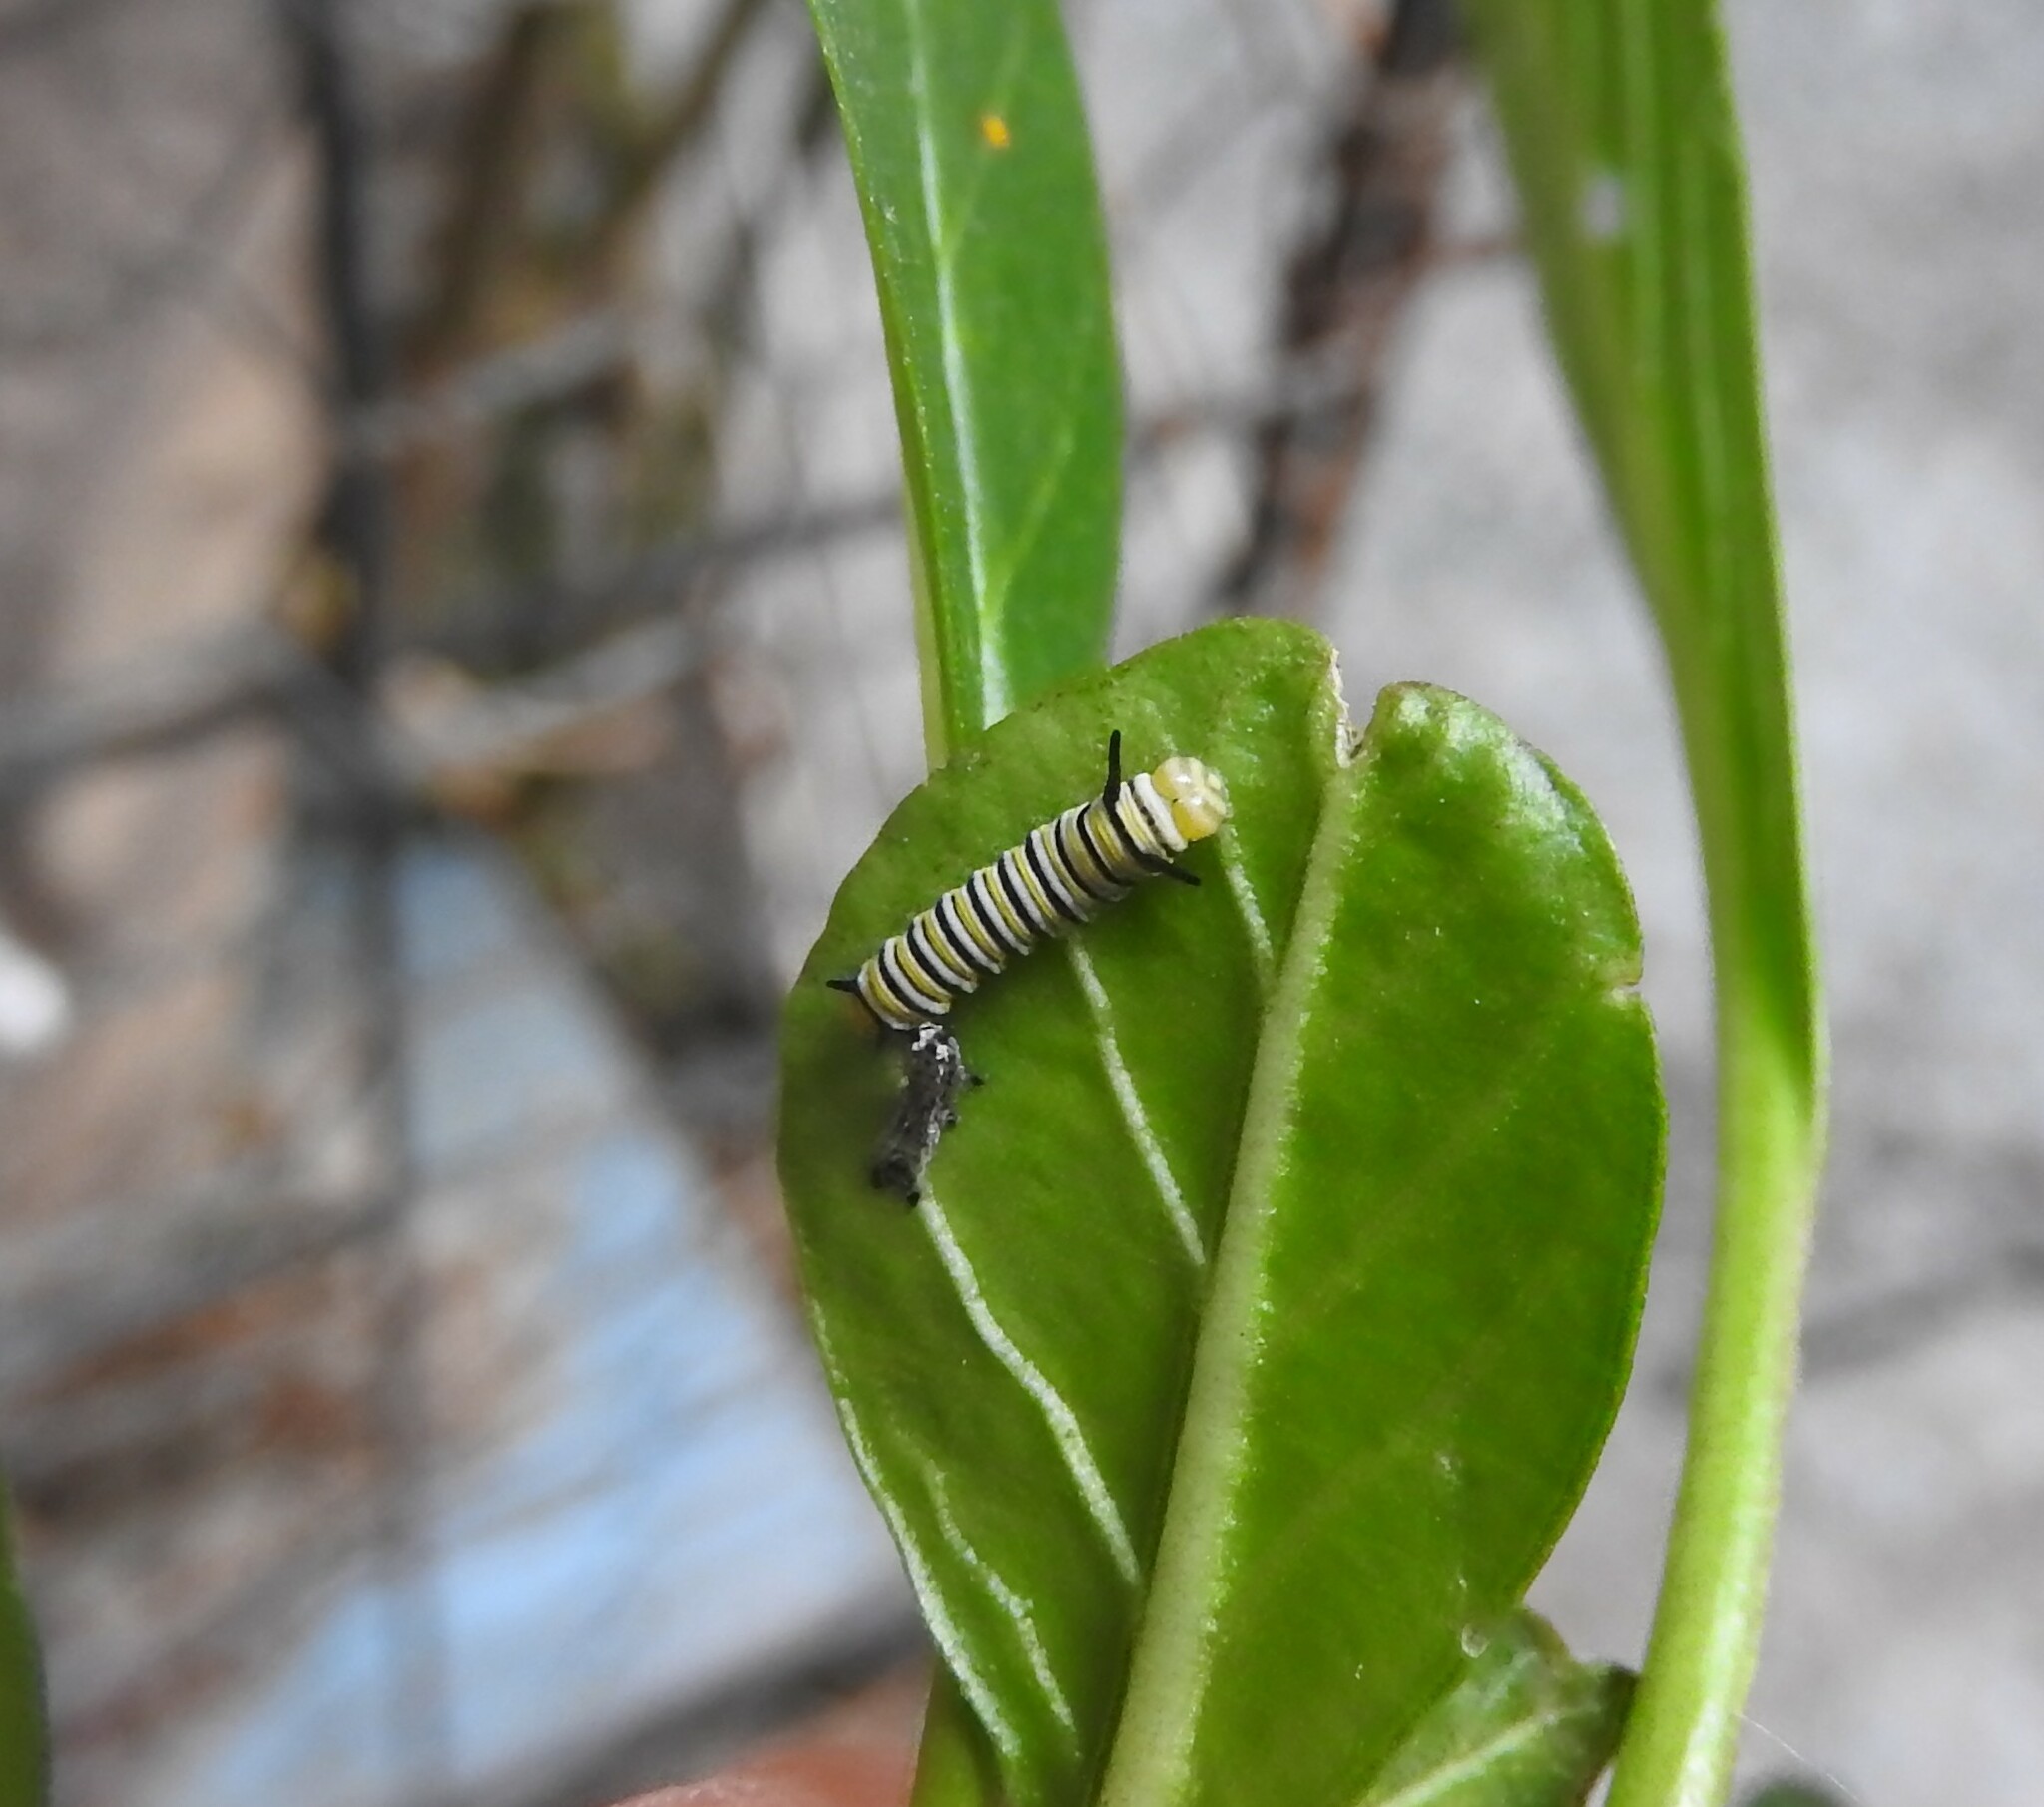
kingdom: Animalia
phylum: Arthropoda
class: Insecta
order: Lepidoptera
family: Nymphalidae
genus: Danaus
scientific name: Danaus plexippus
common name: Monarch
